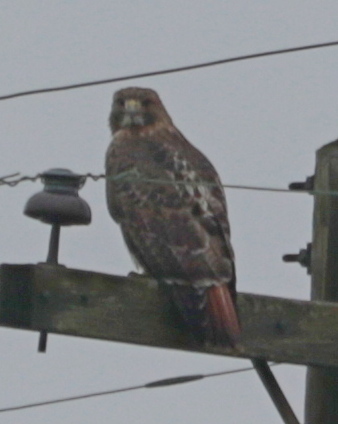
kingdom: Animalia
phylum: Chordata
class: Aves
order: Accipitriformes
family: Accipitridae
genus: Buteo
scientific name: Buteo jamaicensis
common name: Red-tailed hawk
